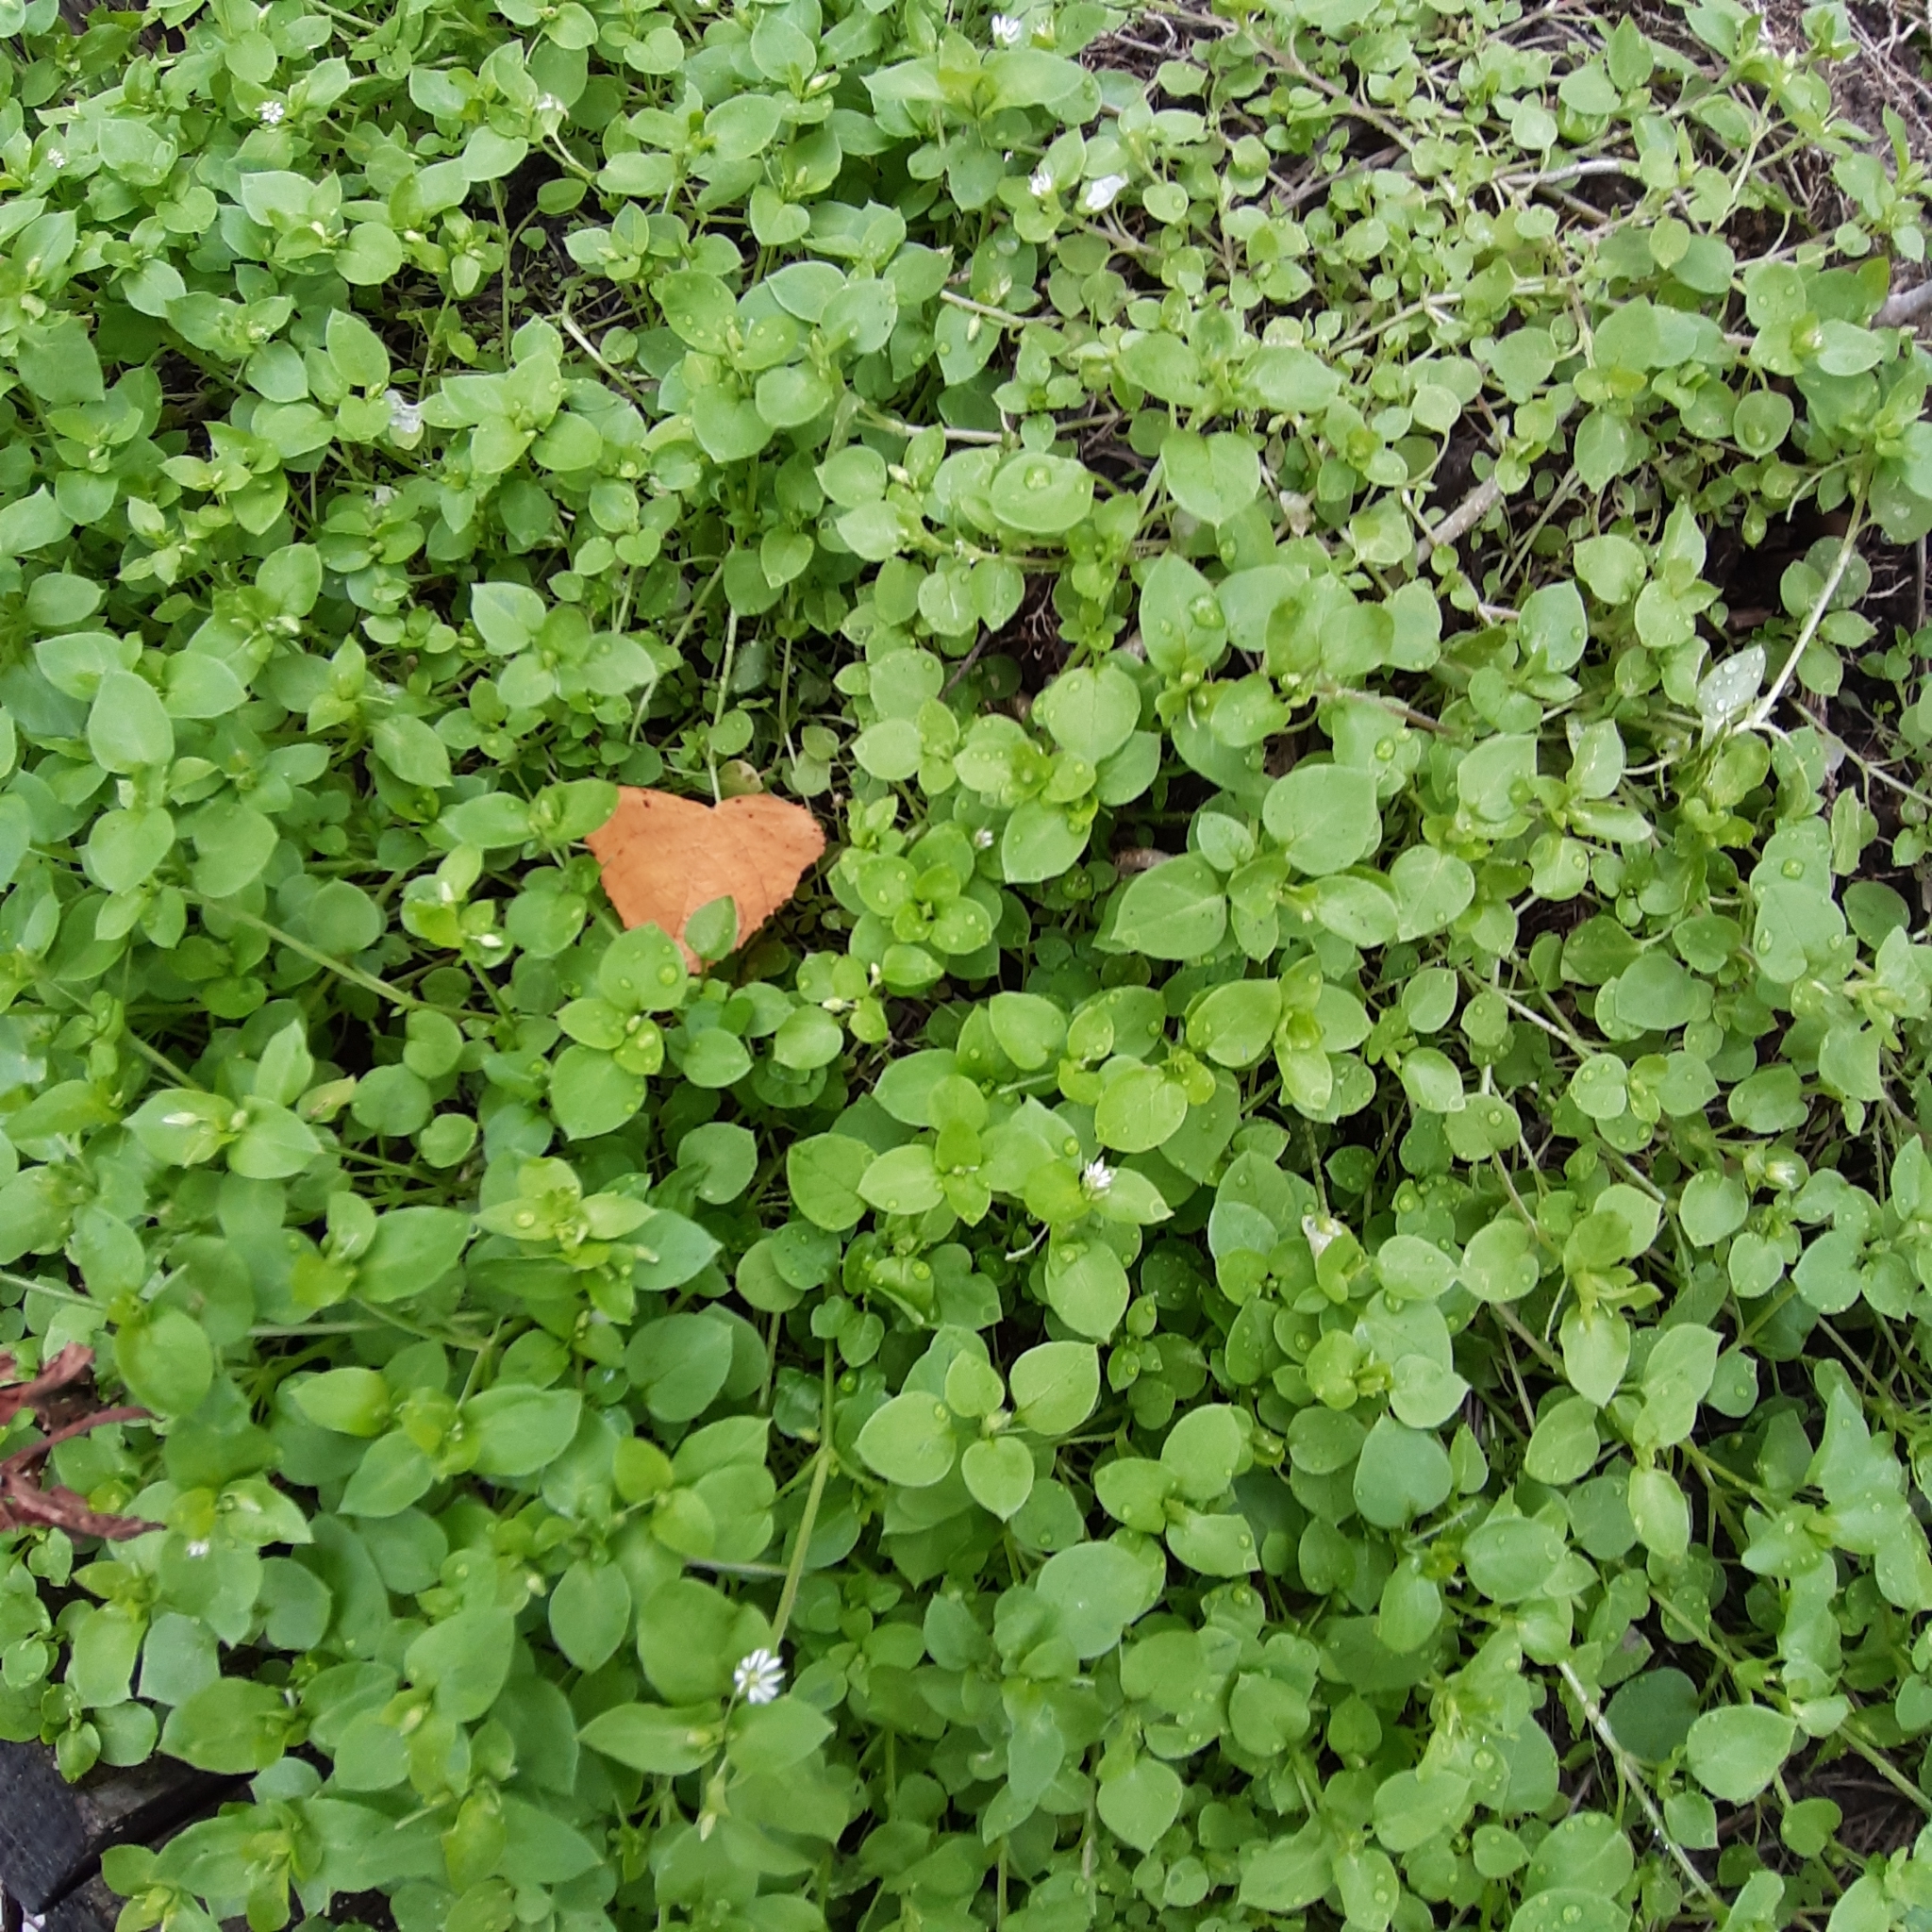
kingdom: Plantae
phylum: Tracheophyta
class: Magnoliopsida
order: Caryophyllales
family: Caryophyllaceae
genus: Stellaria
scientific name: Stellaria media
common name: Common chickweed
